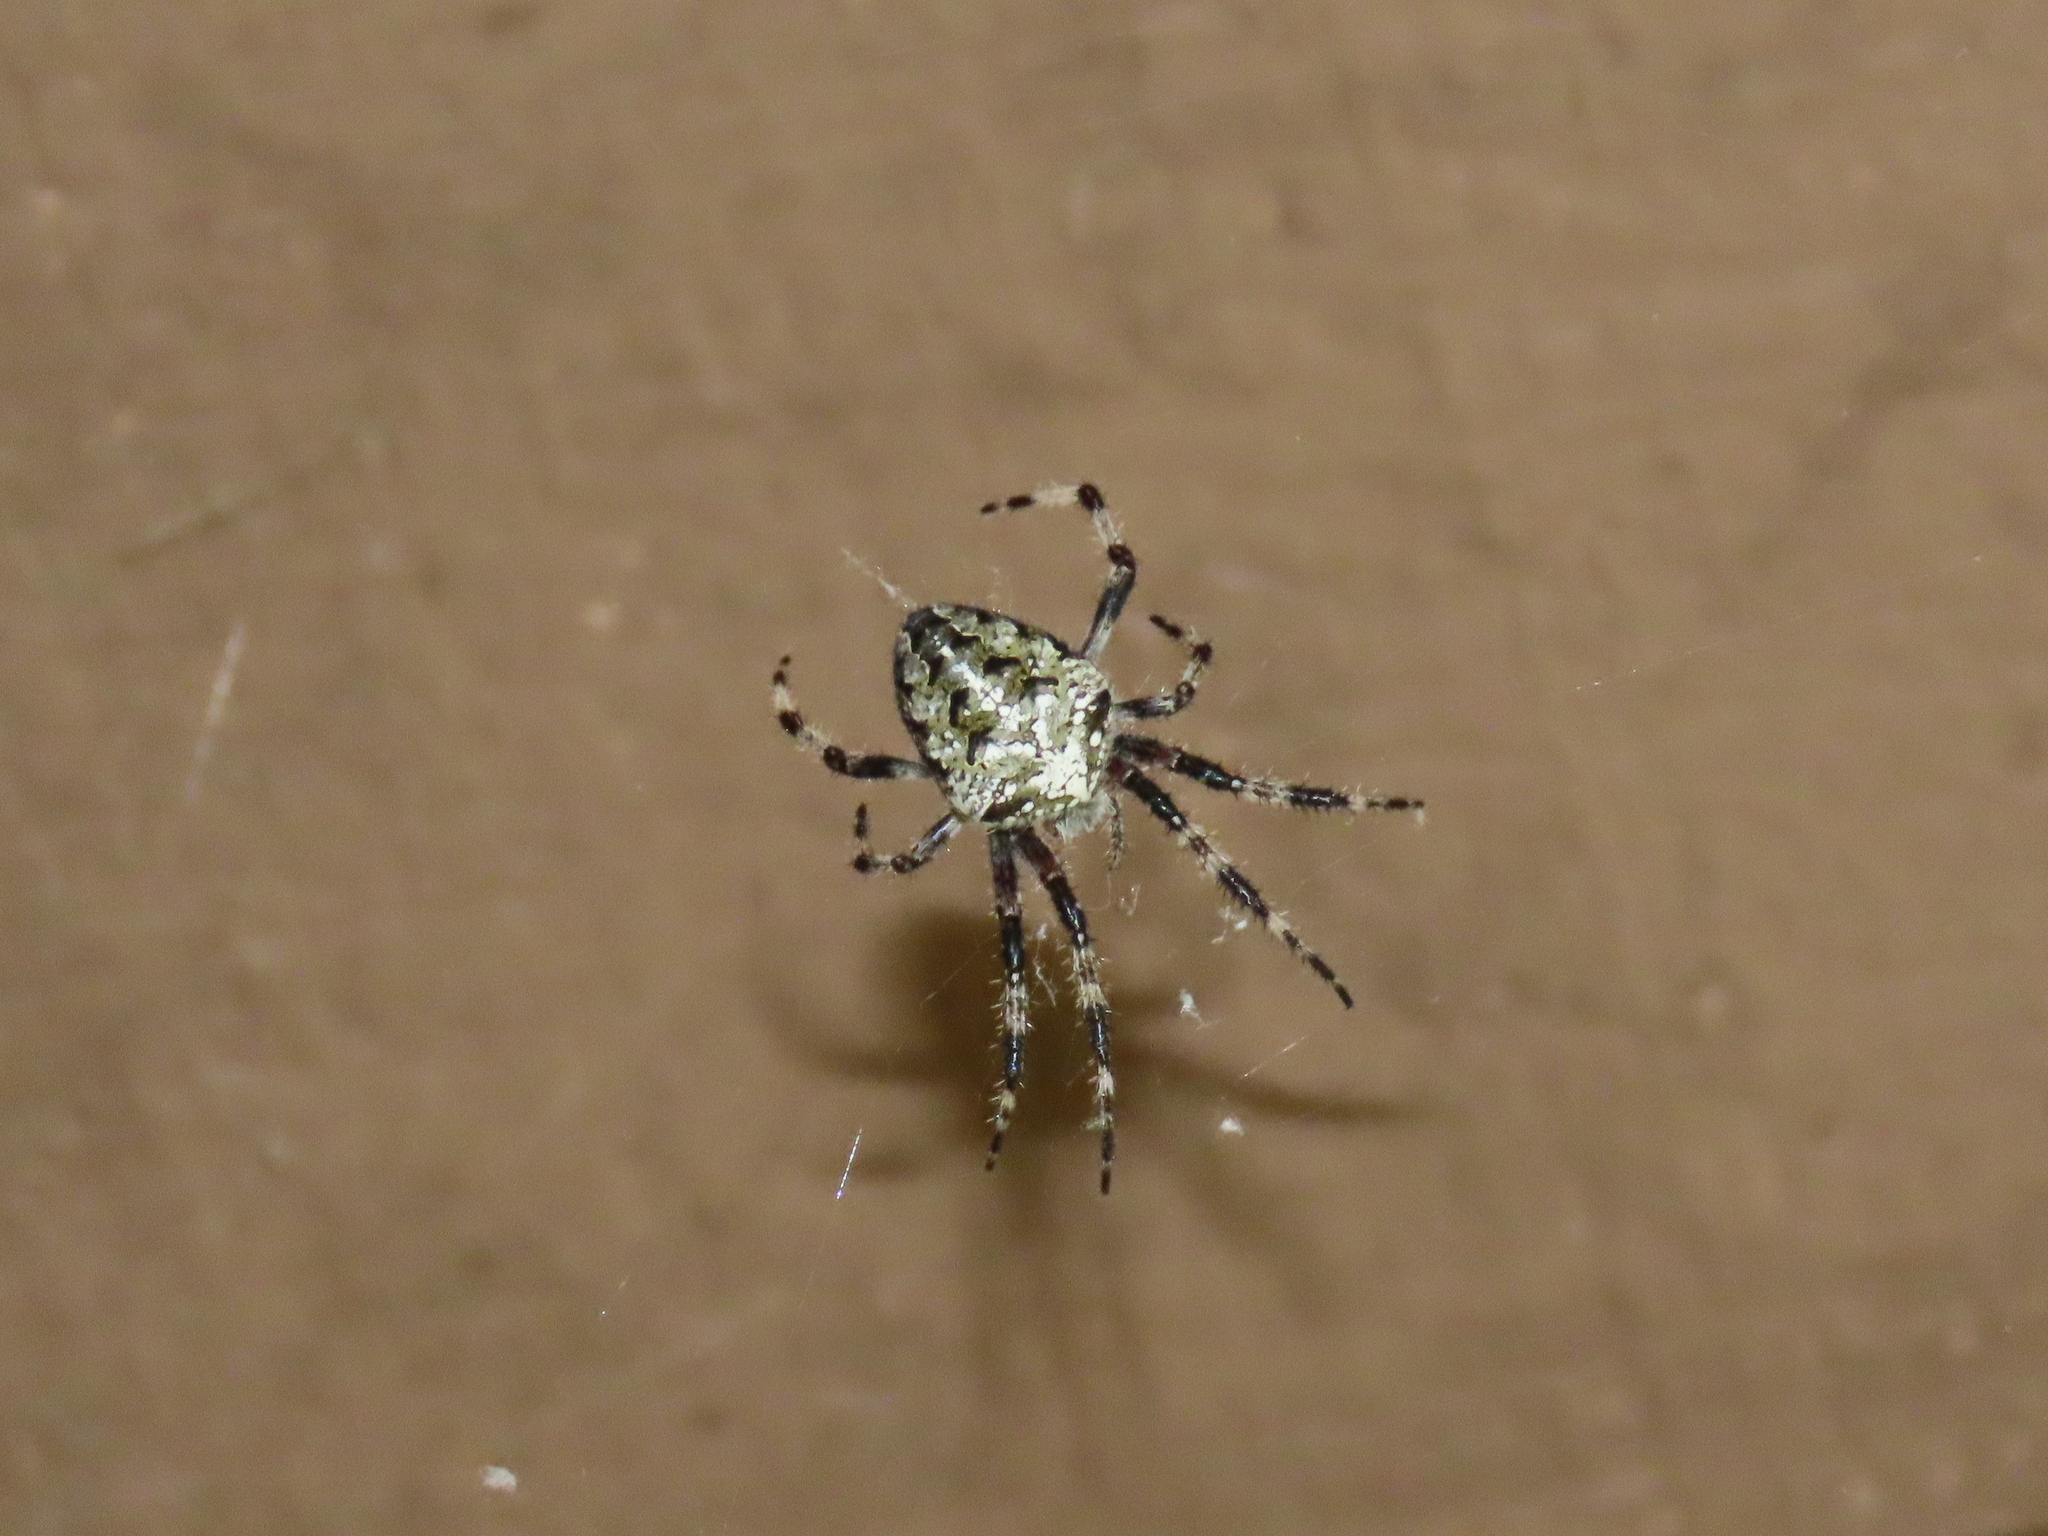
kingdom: Animalia
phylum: Arthropoda
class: Arachnida
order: Araneae
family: Araneidae
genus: Araneus
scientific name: Araneus nordmanni
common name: Nordmann's orbweaver
